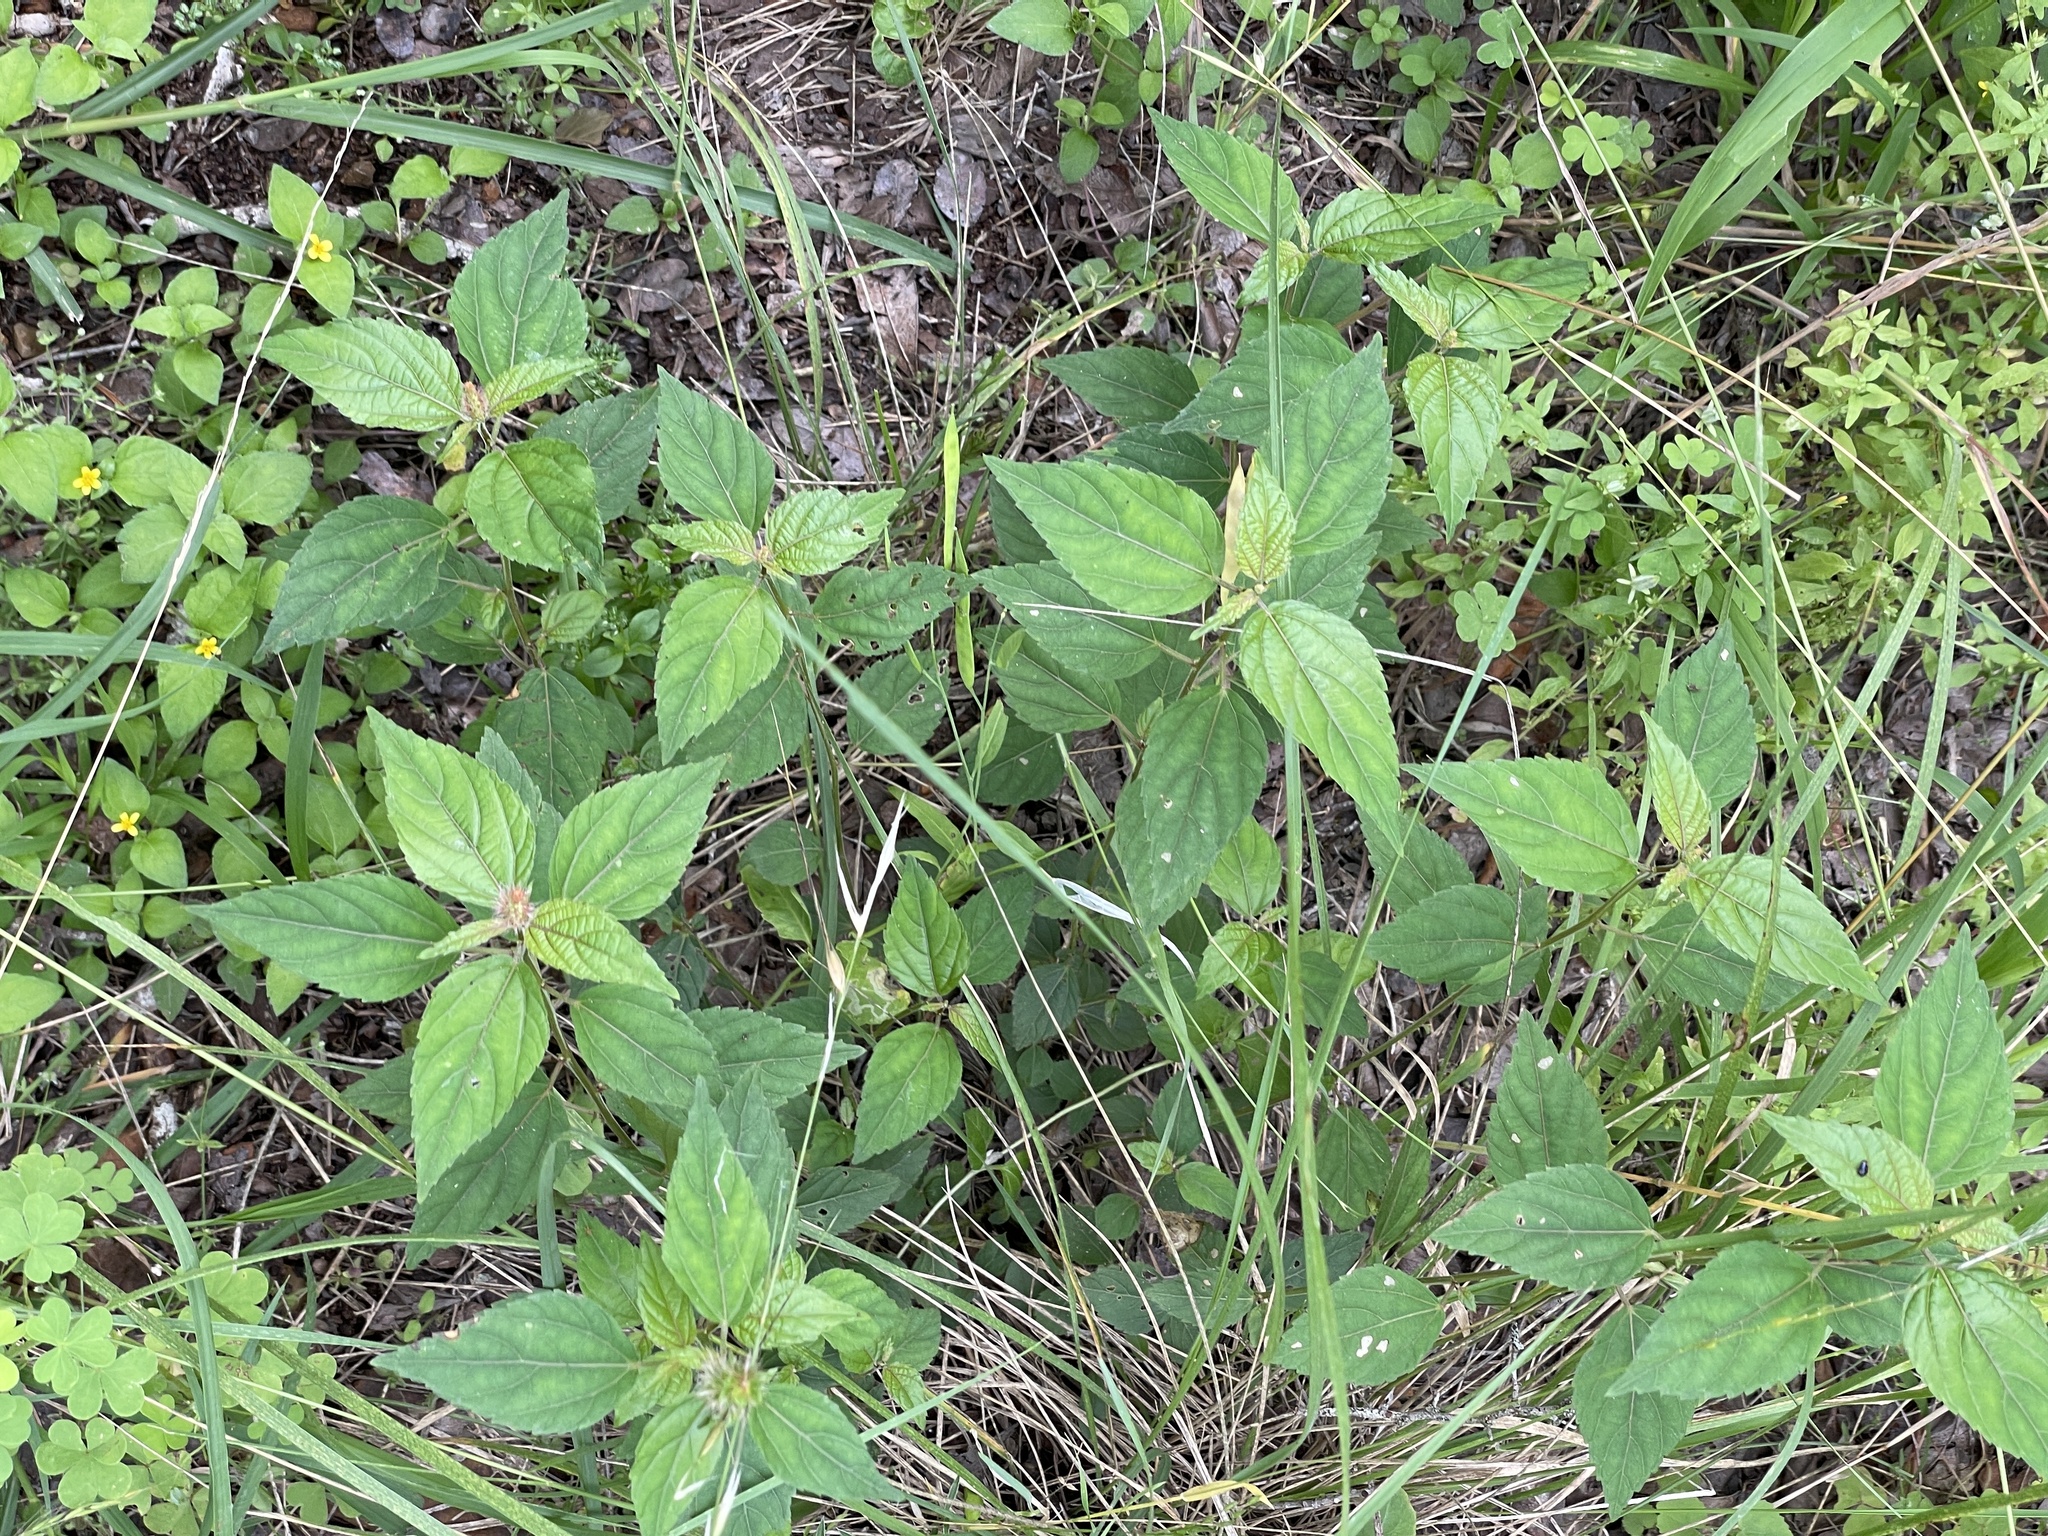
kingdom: Plantae
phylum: Tracheophyta
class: Magnoliopsida
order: Malpighiales
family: Euphorbiaceae
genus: Acalypha
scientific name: Acalypha phleoides
